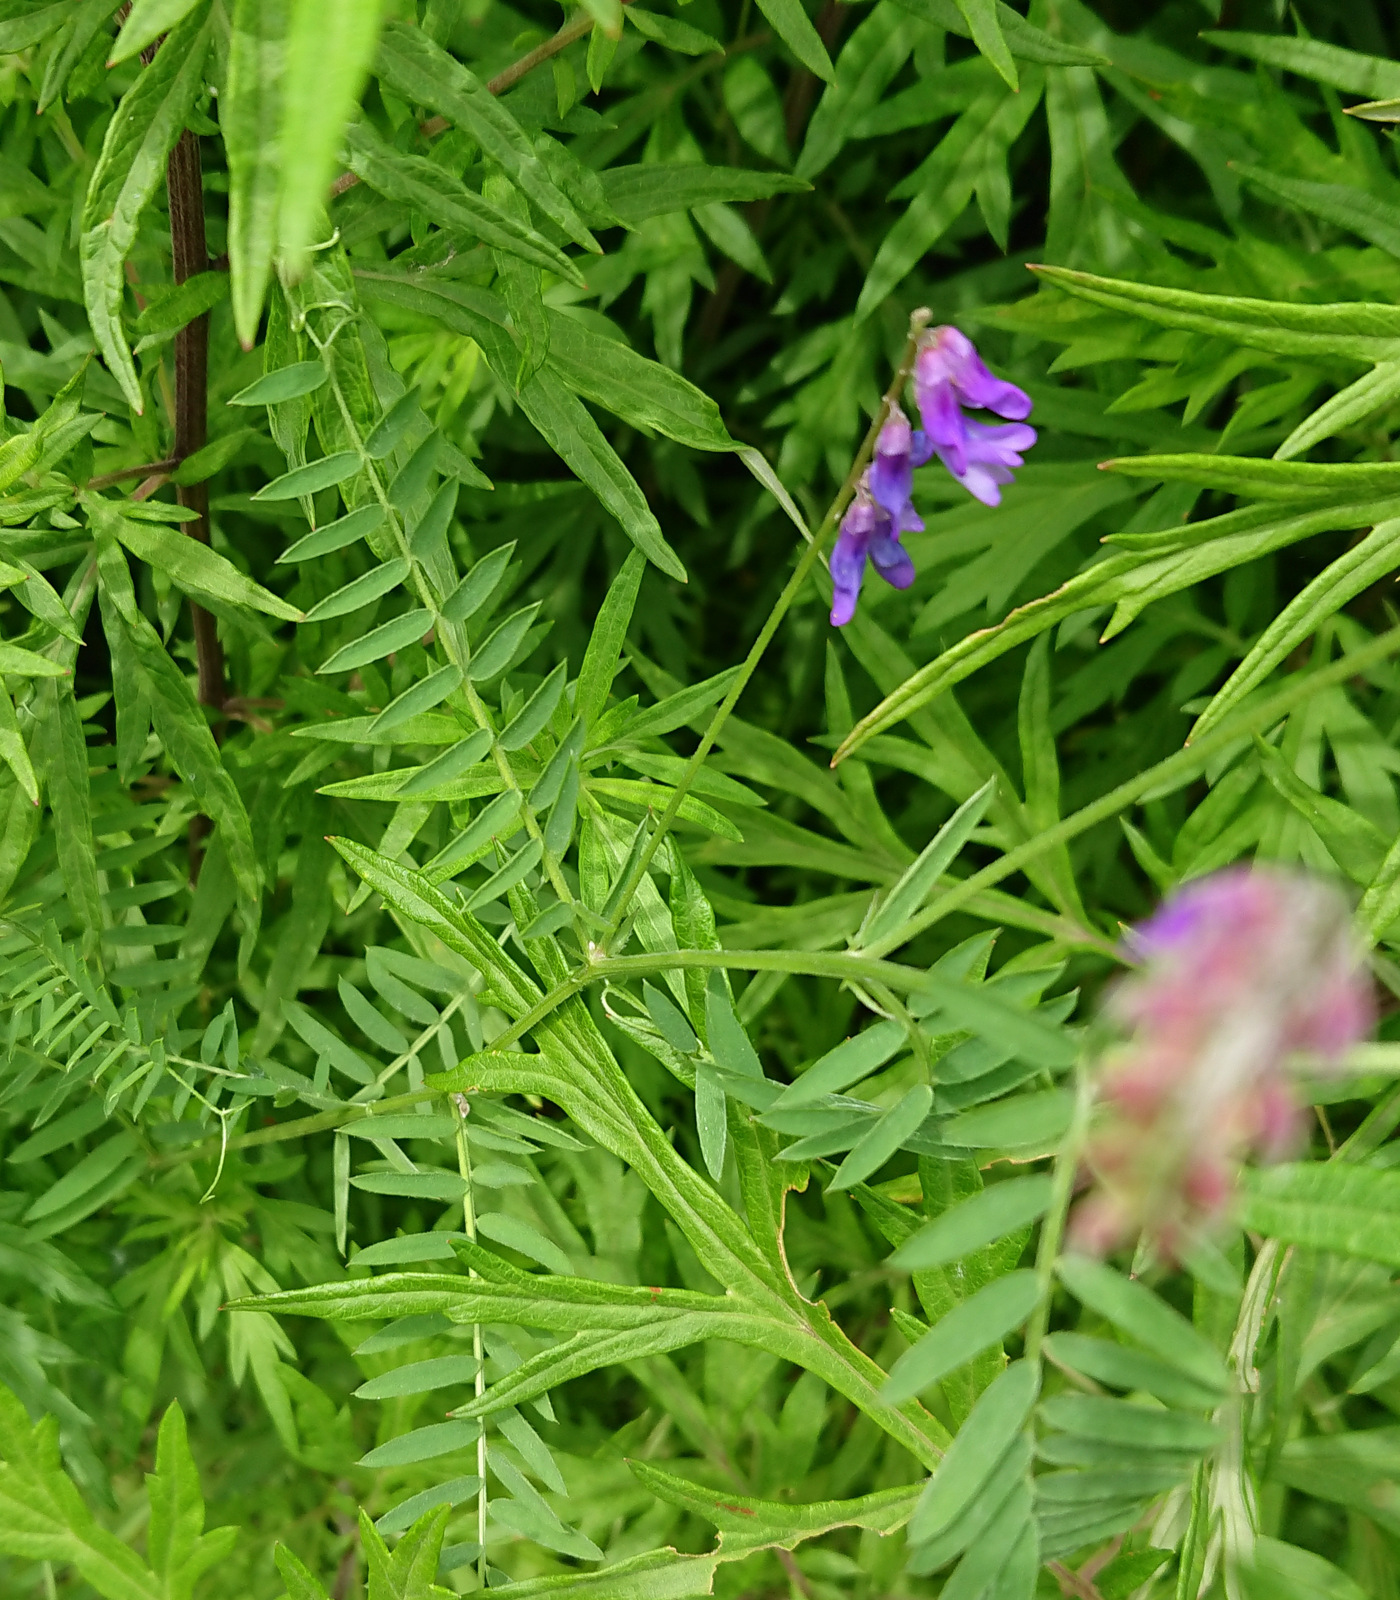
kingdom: Plantae
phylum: Tracheophyta
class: Magnoliopsida
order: Fabales
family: Fabaceae
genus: Vicia
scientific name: Vicia cracca
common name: Bird vetch
